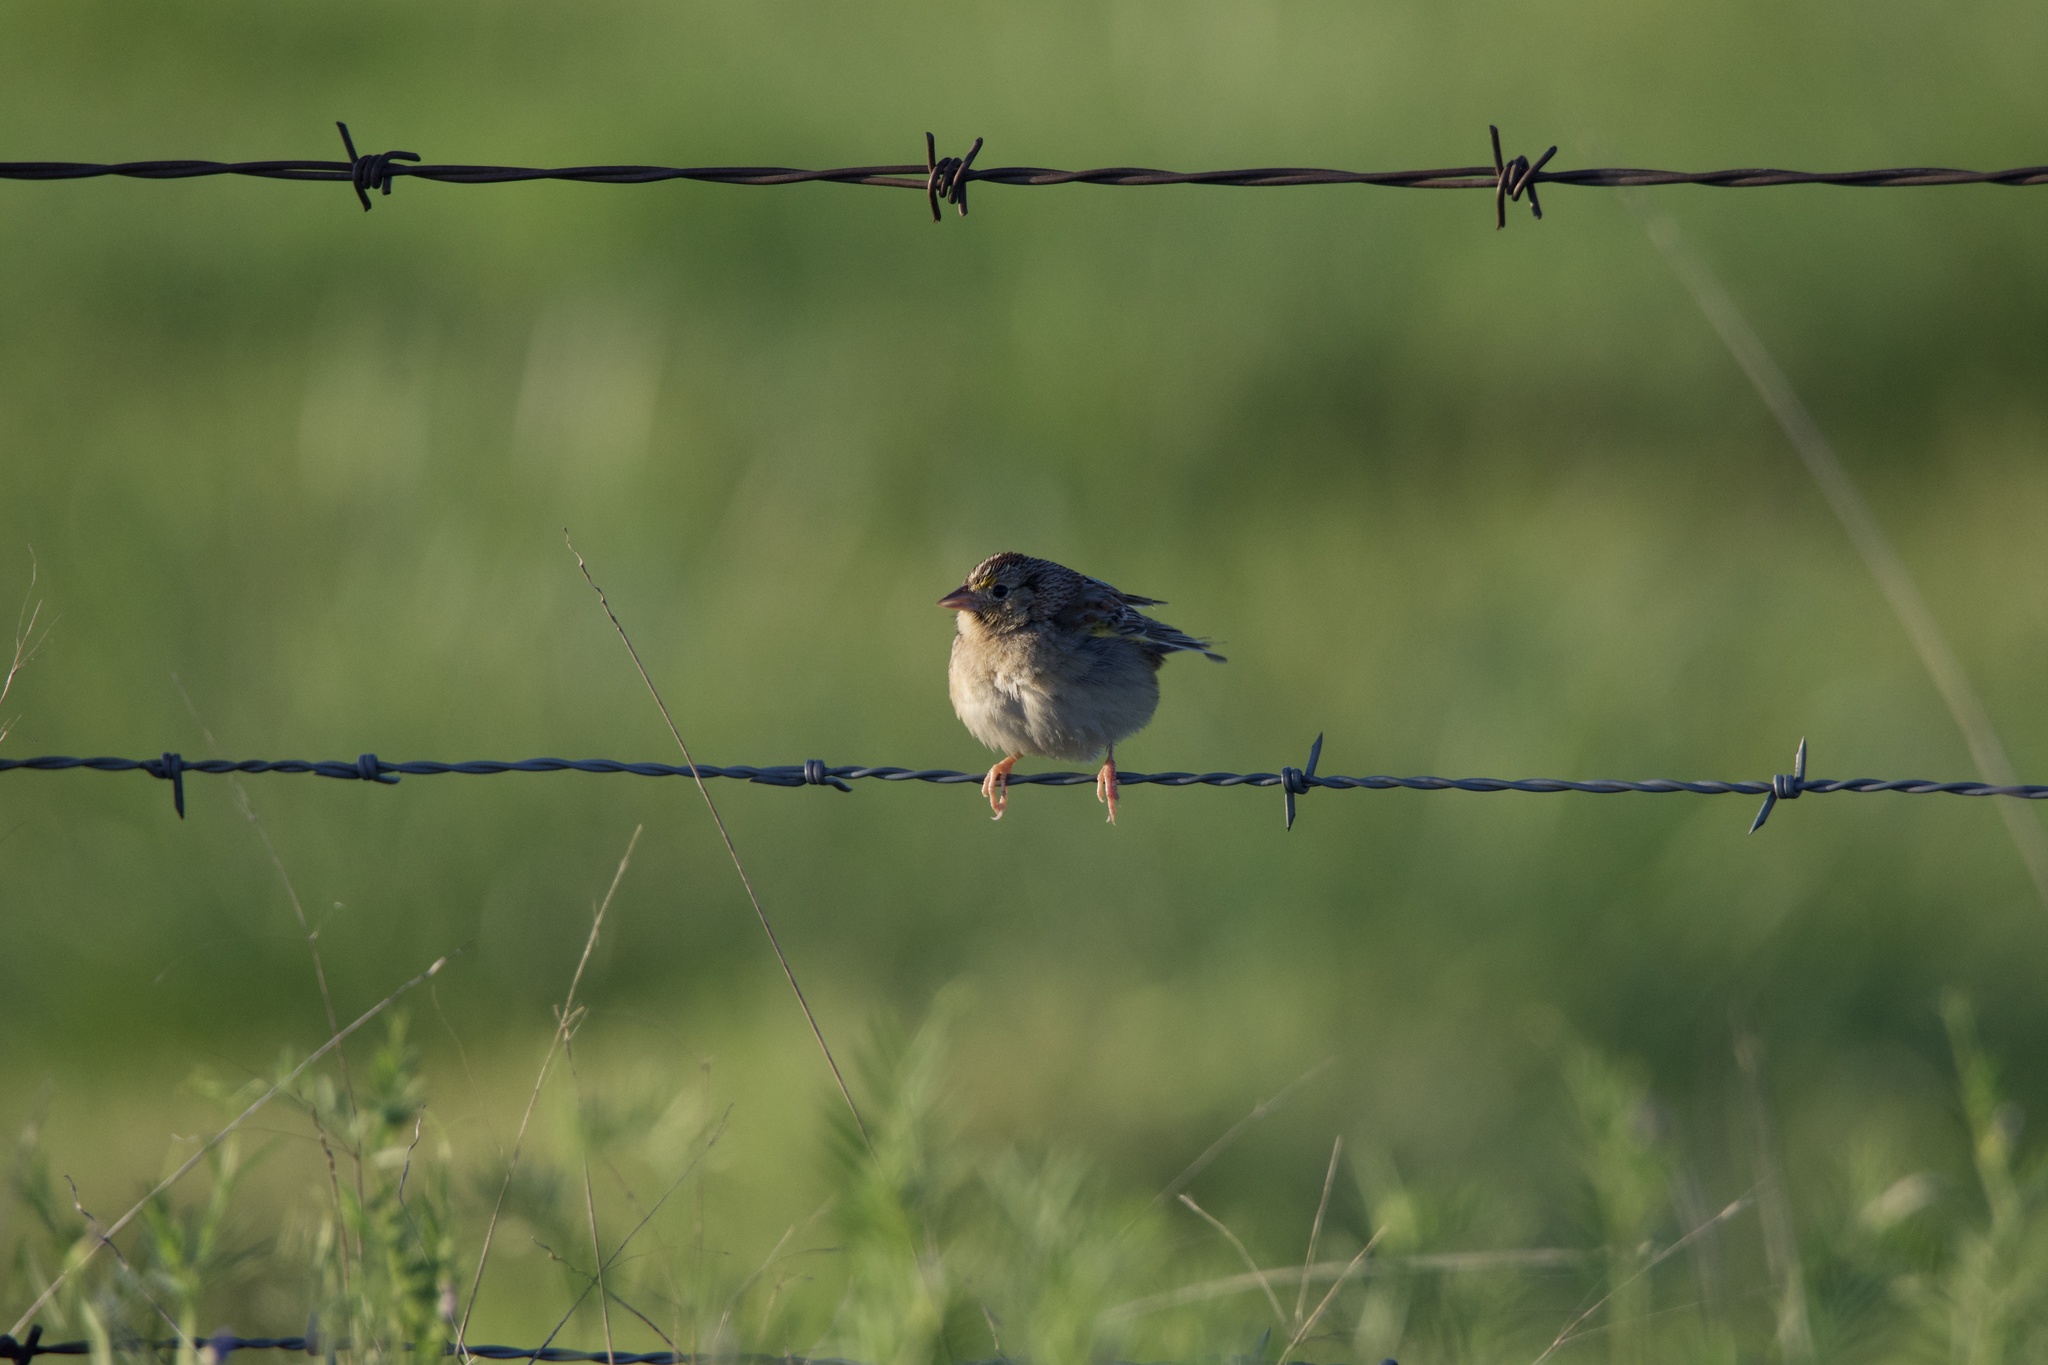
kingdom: Animalia
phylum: Chordata
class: Aves
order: Passeriformes
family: Passerellidae
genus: Ammodramus
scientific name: Ammodramus savannarum
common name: Grasshopper sparrow
